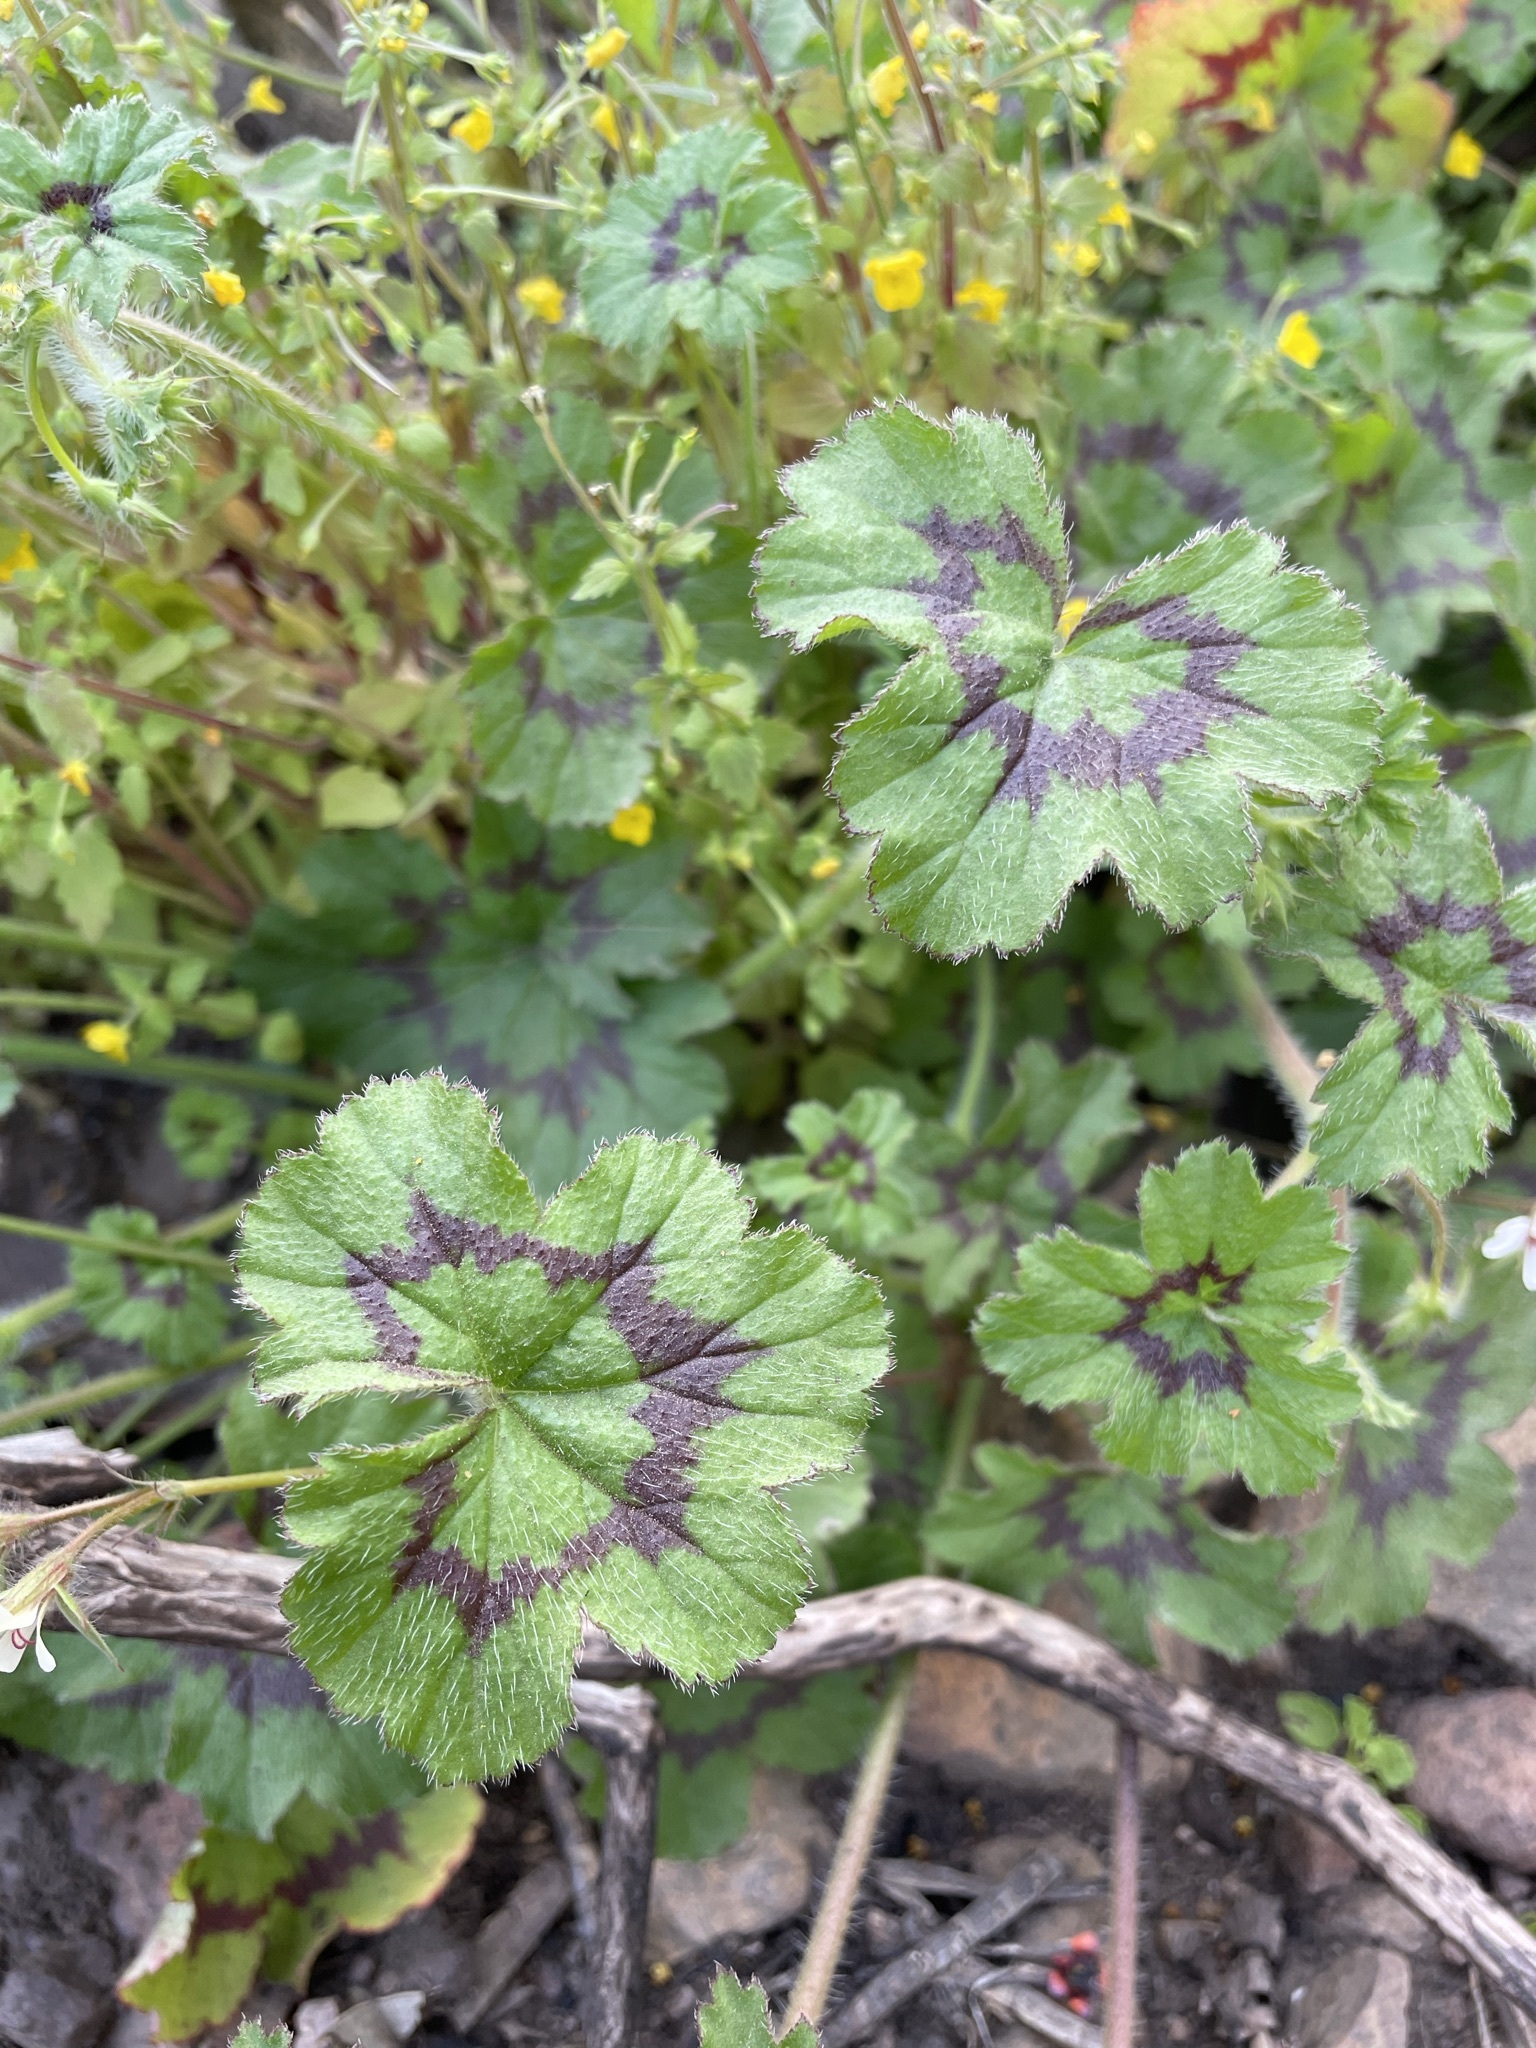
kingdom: Plantae
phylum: Tracheophyta
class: Magnoliopsida
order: Geraniales
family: Geraniaceae
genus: Pelargonium
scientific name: Pelargonium alchemilloides
